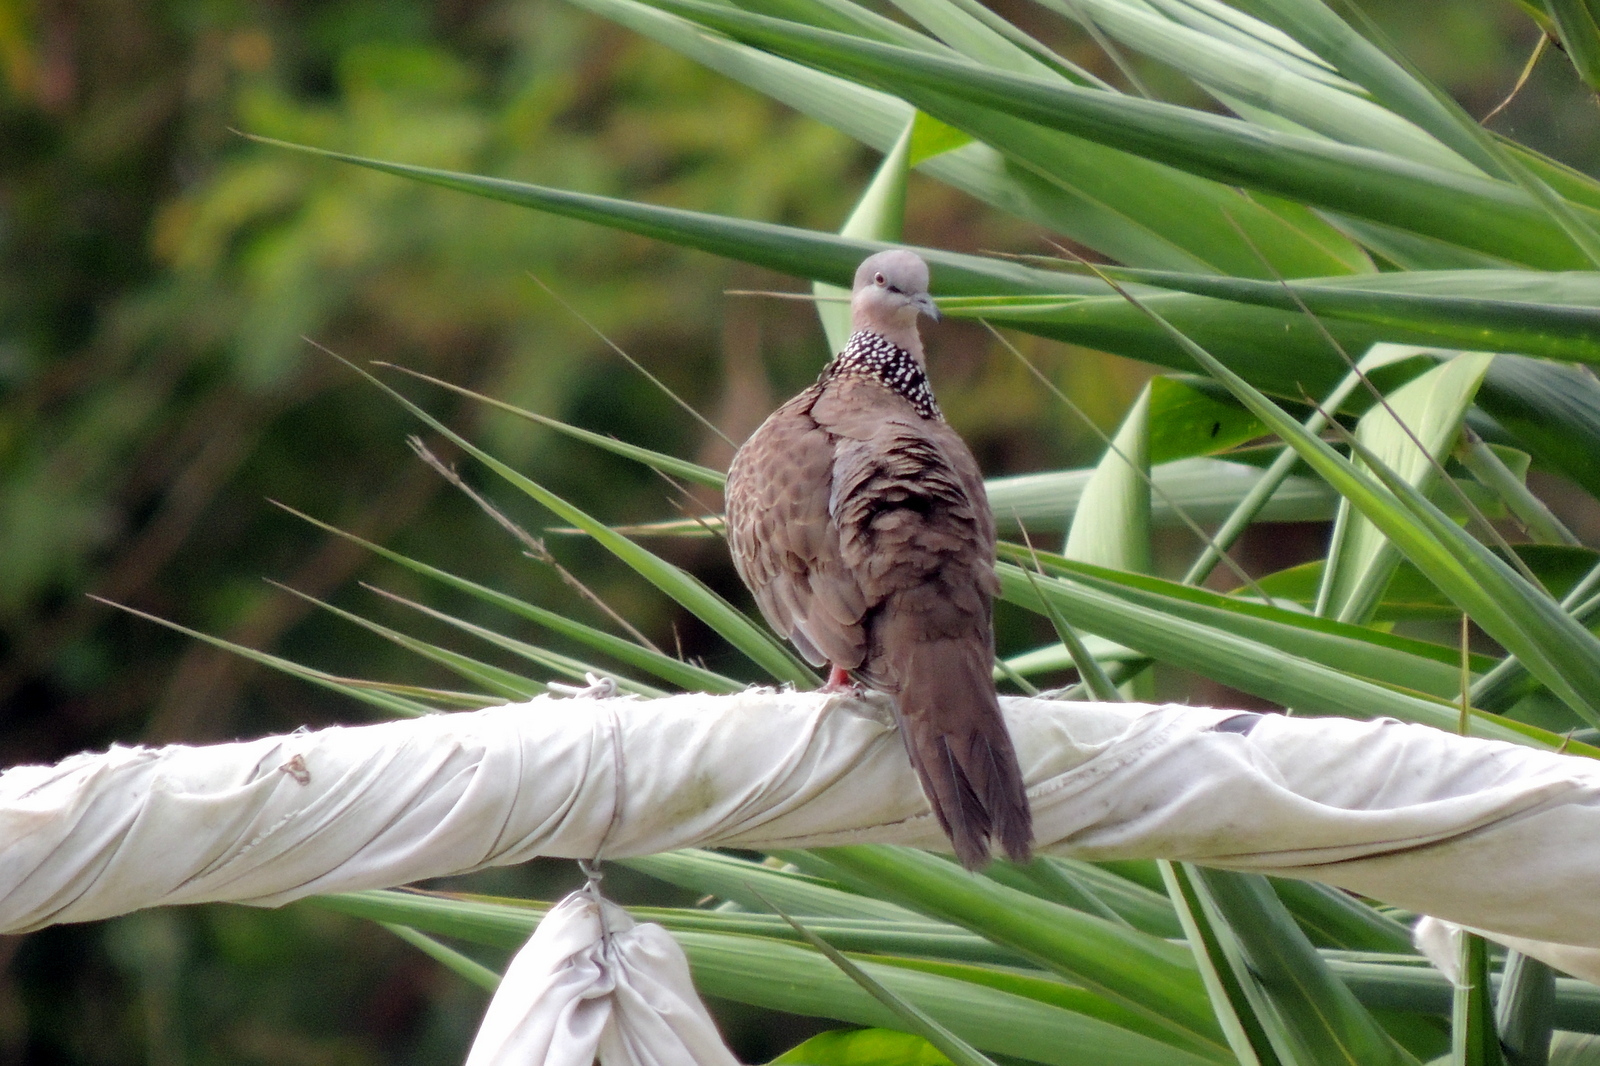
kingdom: Animalia
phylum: Chordata
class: Aves
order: Columbiformes
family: Columbidae
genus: Spilopelia
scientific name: Spilopelia chinensis
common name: Spotted dove
